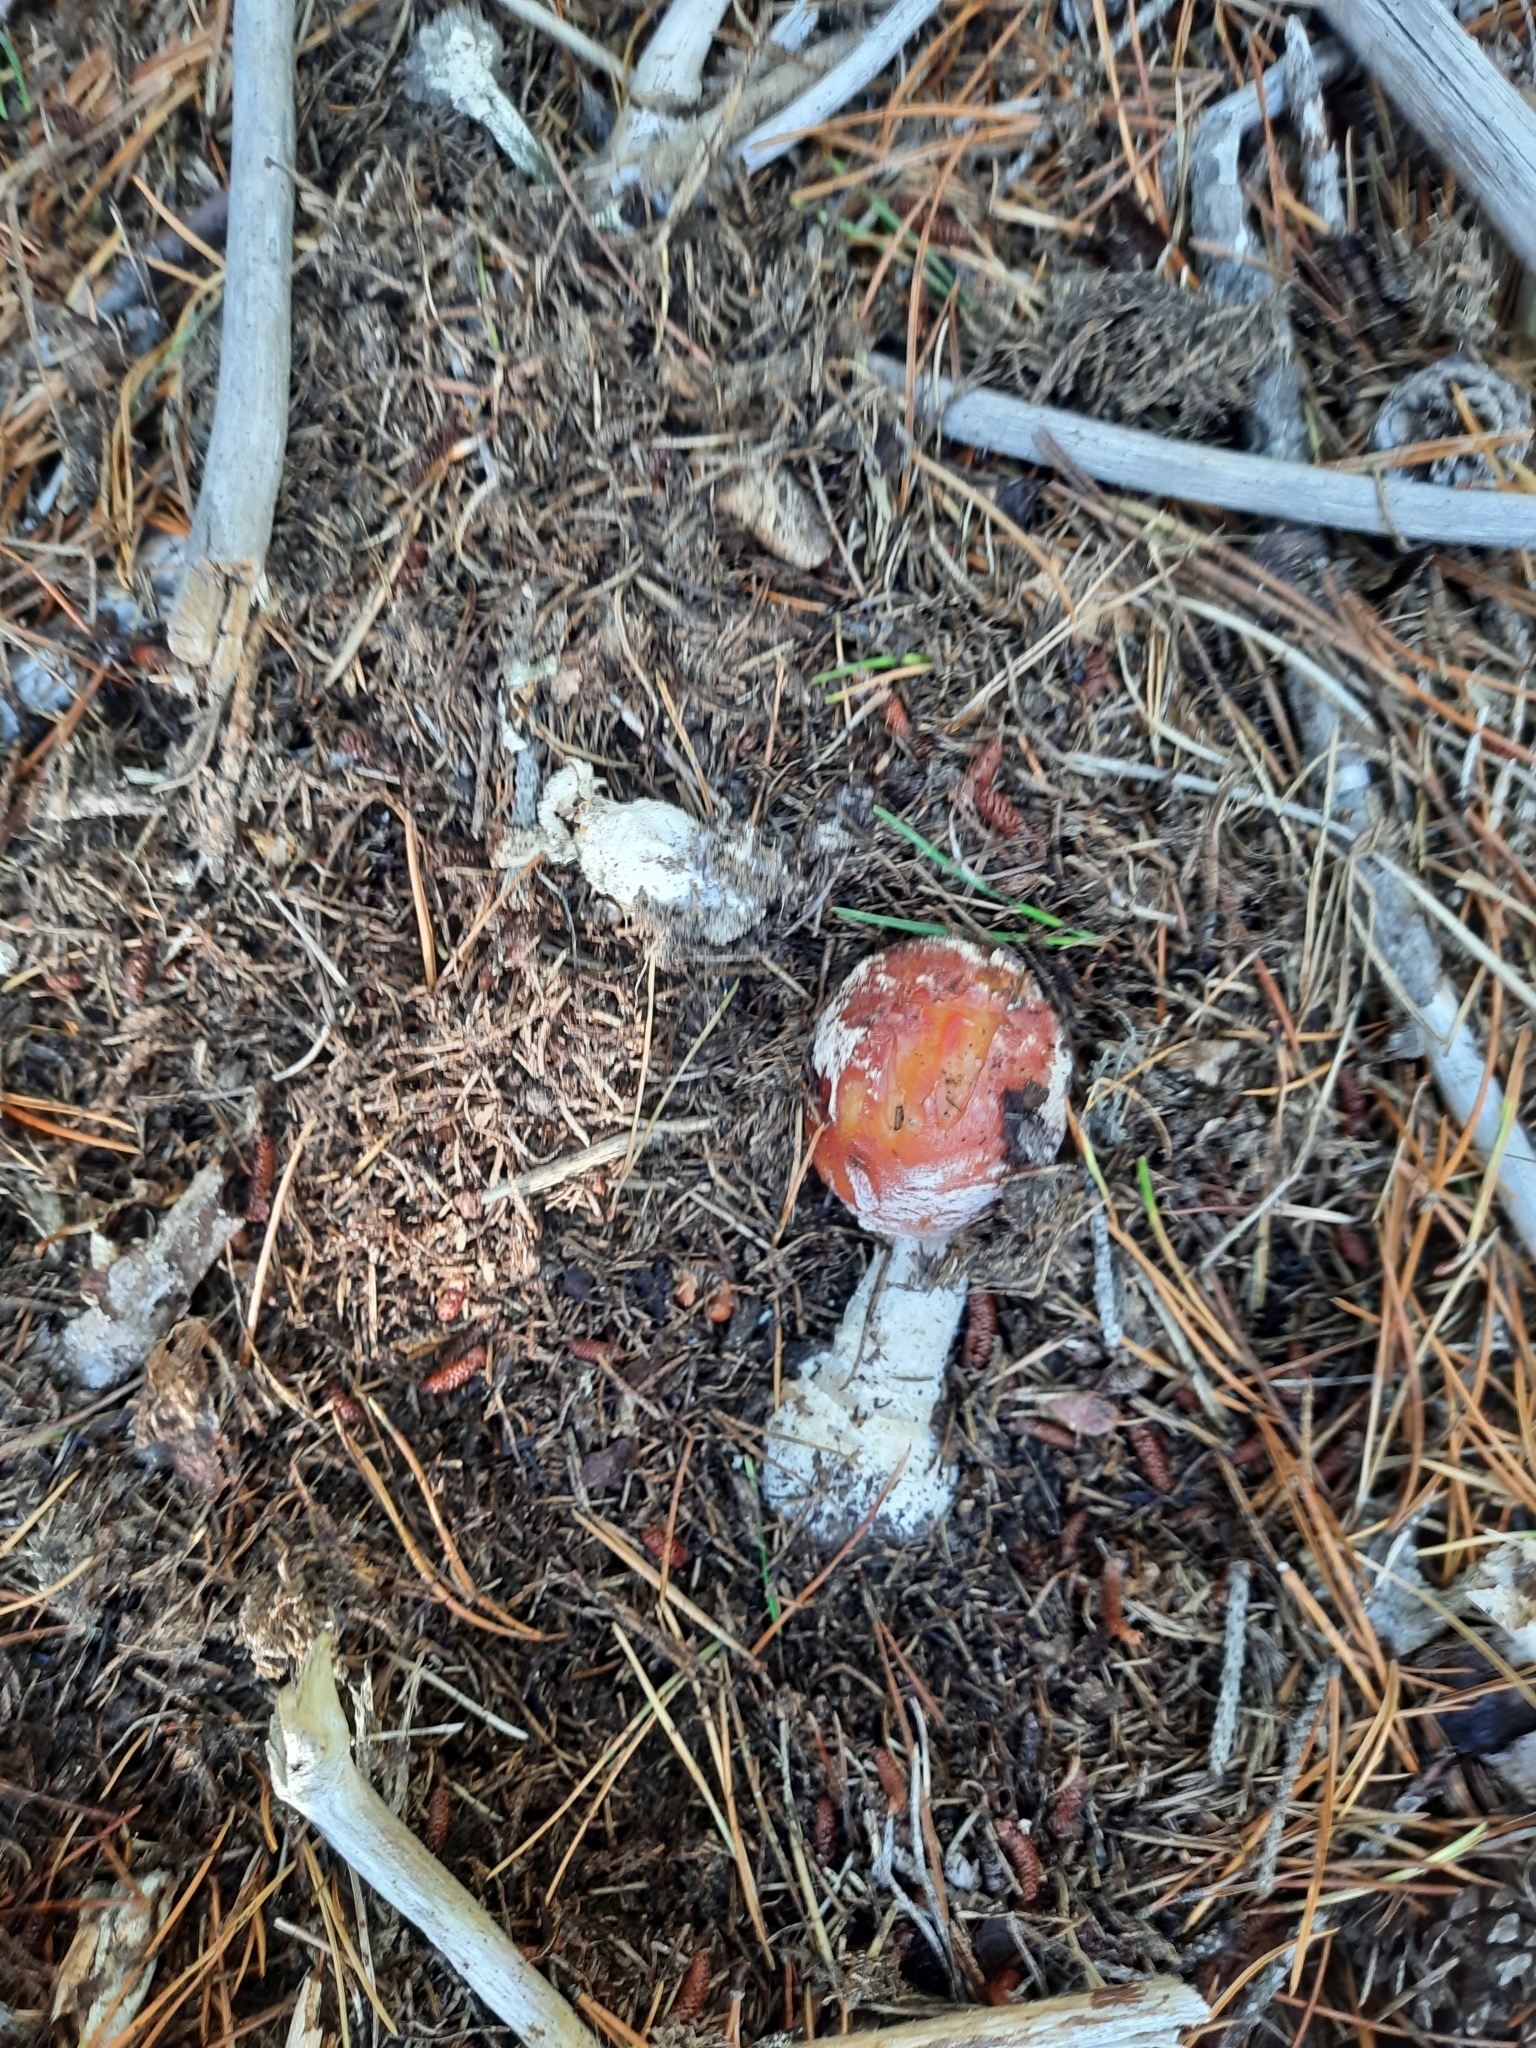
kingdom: Fungi
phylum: Basidiomycota
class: Agaricomycetes
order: Agaricales
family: Amanitaceae
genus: Amanita
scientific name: Amanita muscaria
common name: Fly agaric
